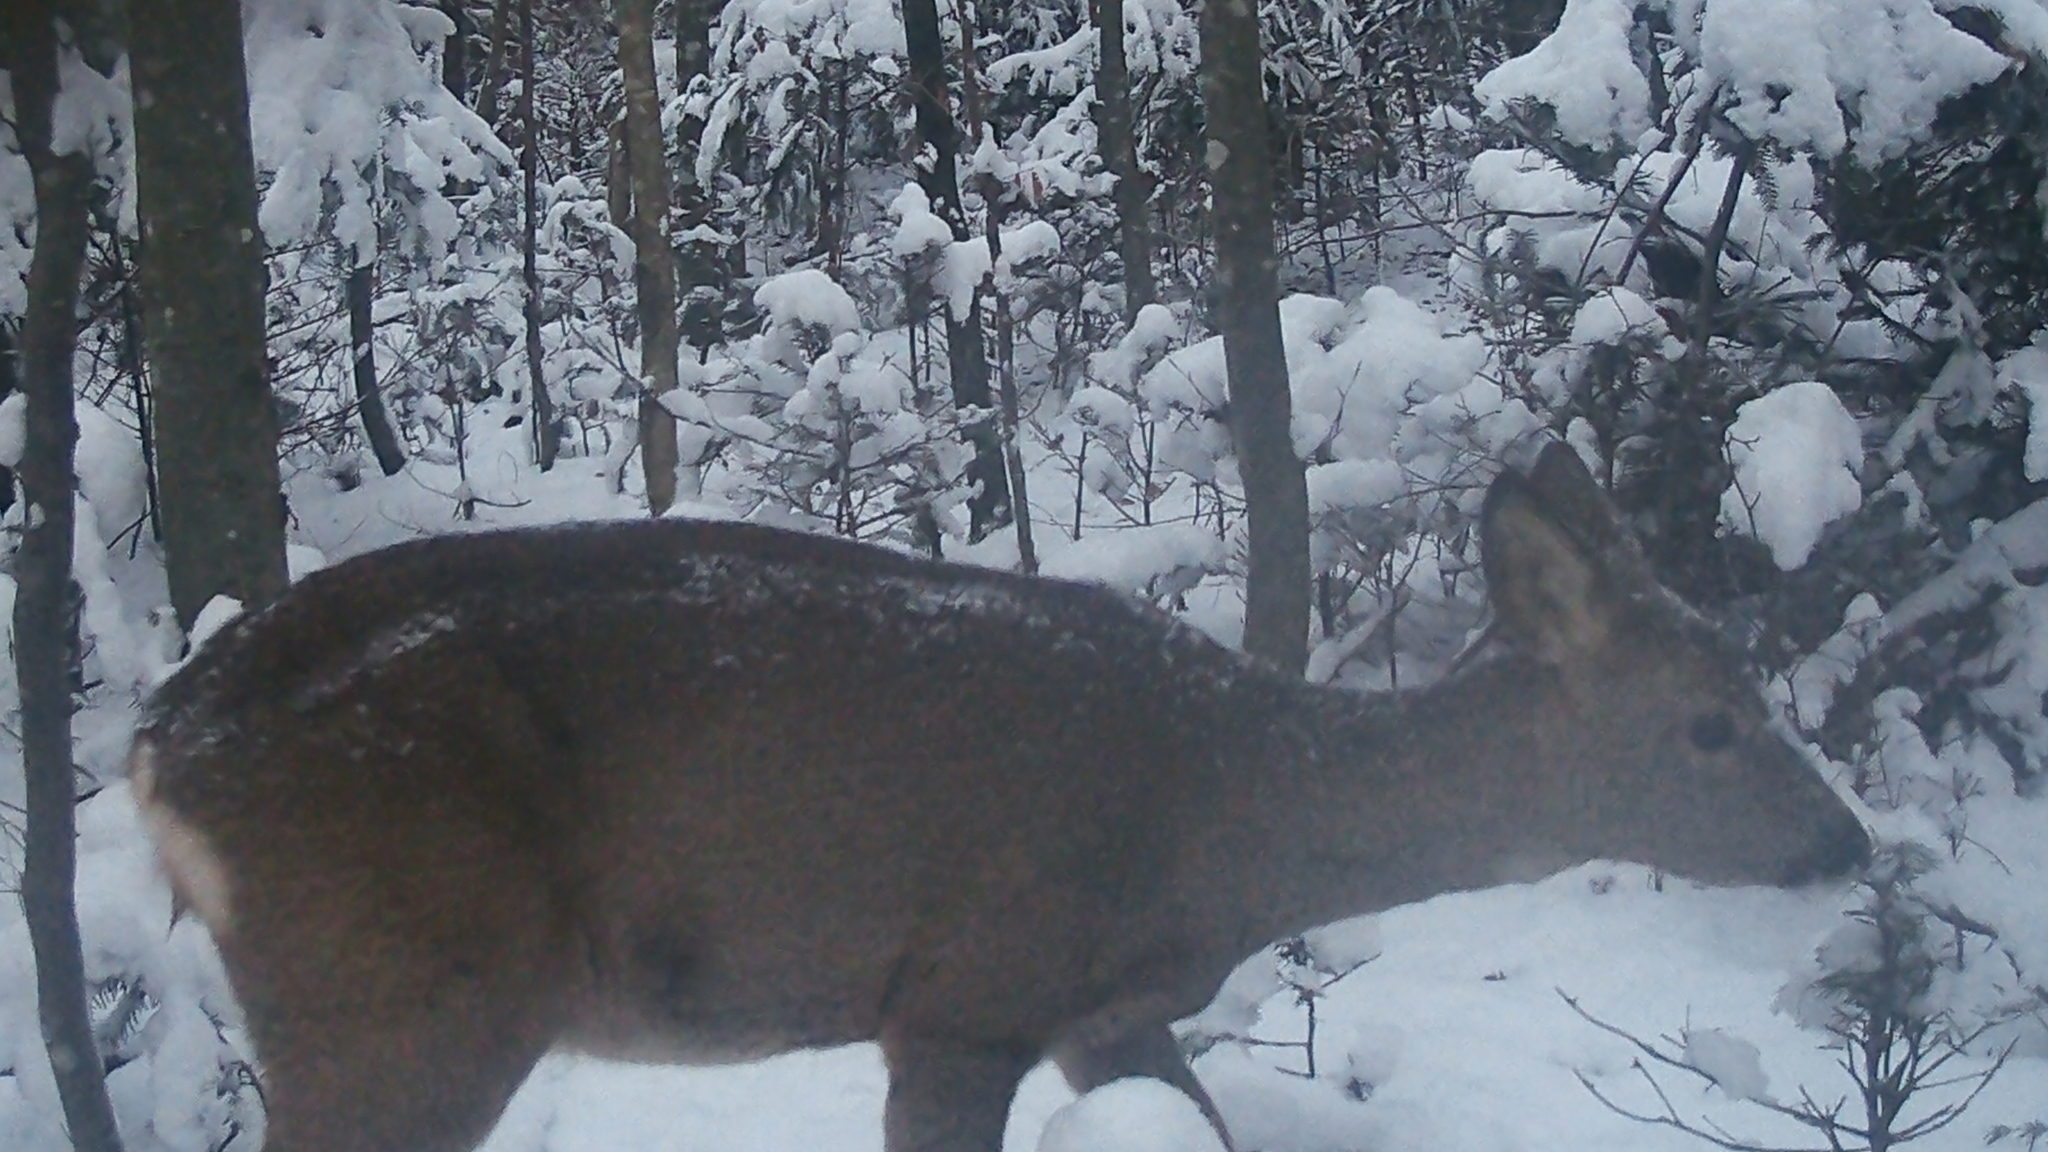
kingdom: Animalia
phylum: Chordata
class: Mammalia
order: Artiodactyla
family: Cervidae
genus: Capreolus
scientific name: Capreolus capreolus
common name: Western roe deer
